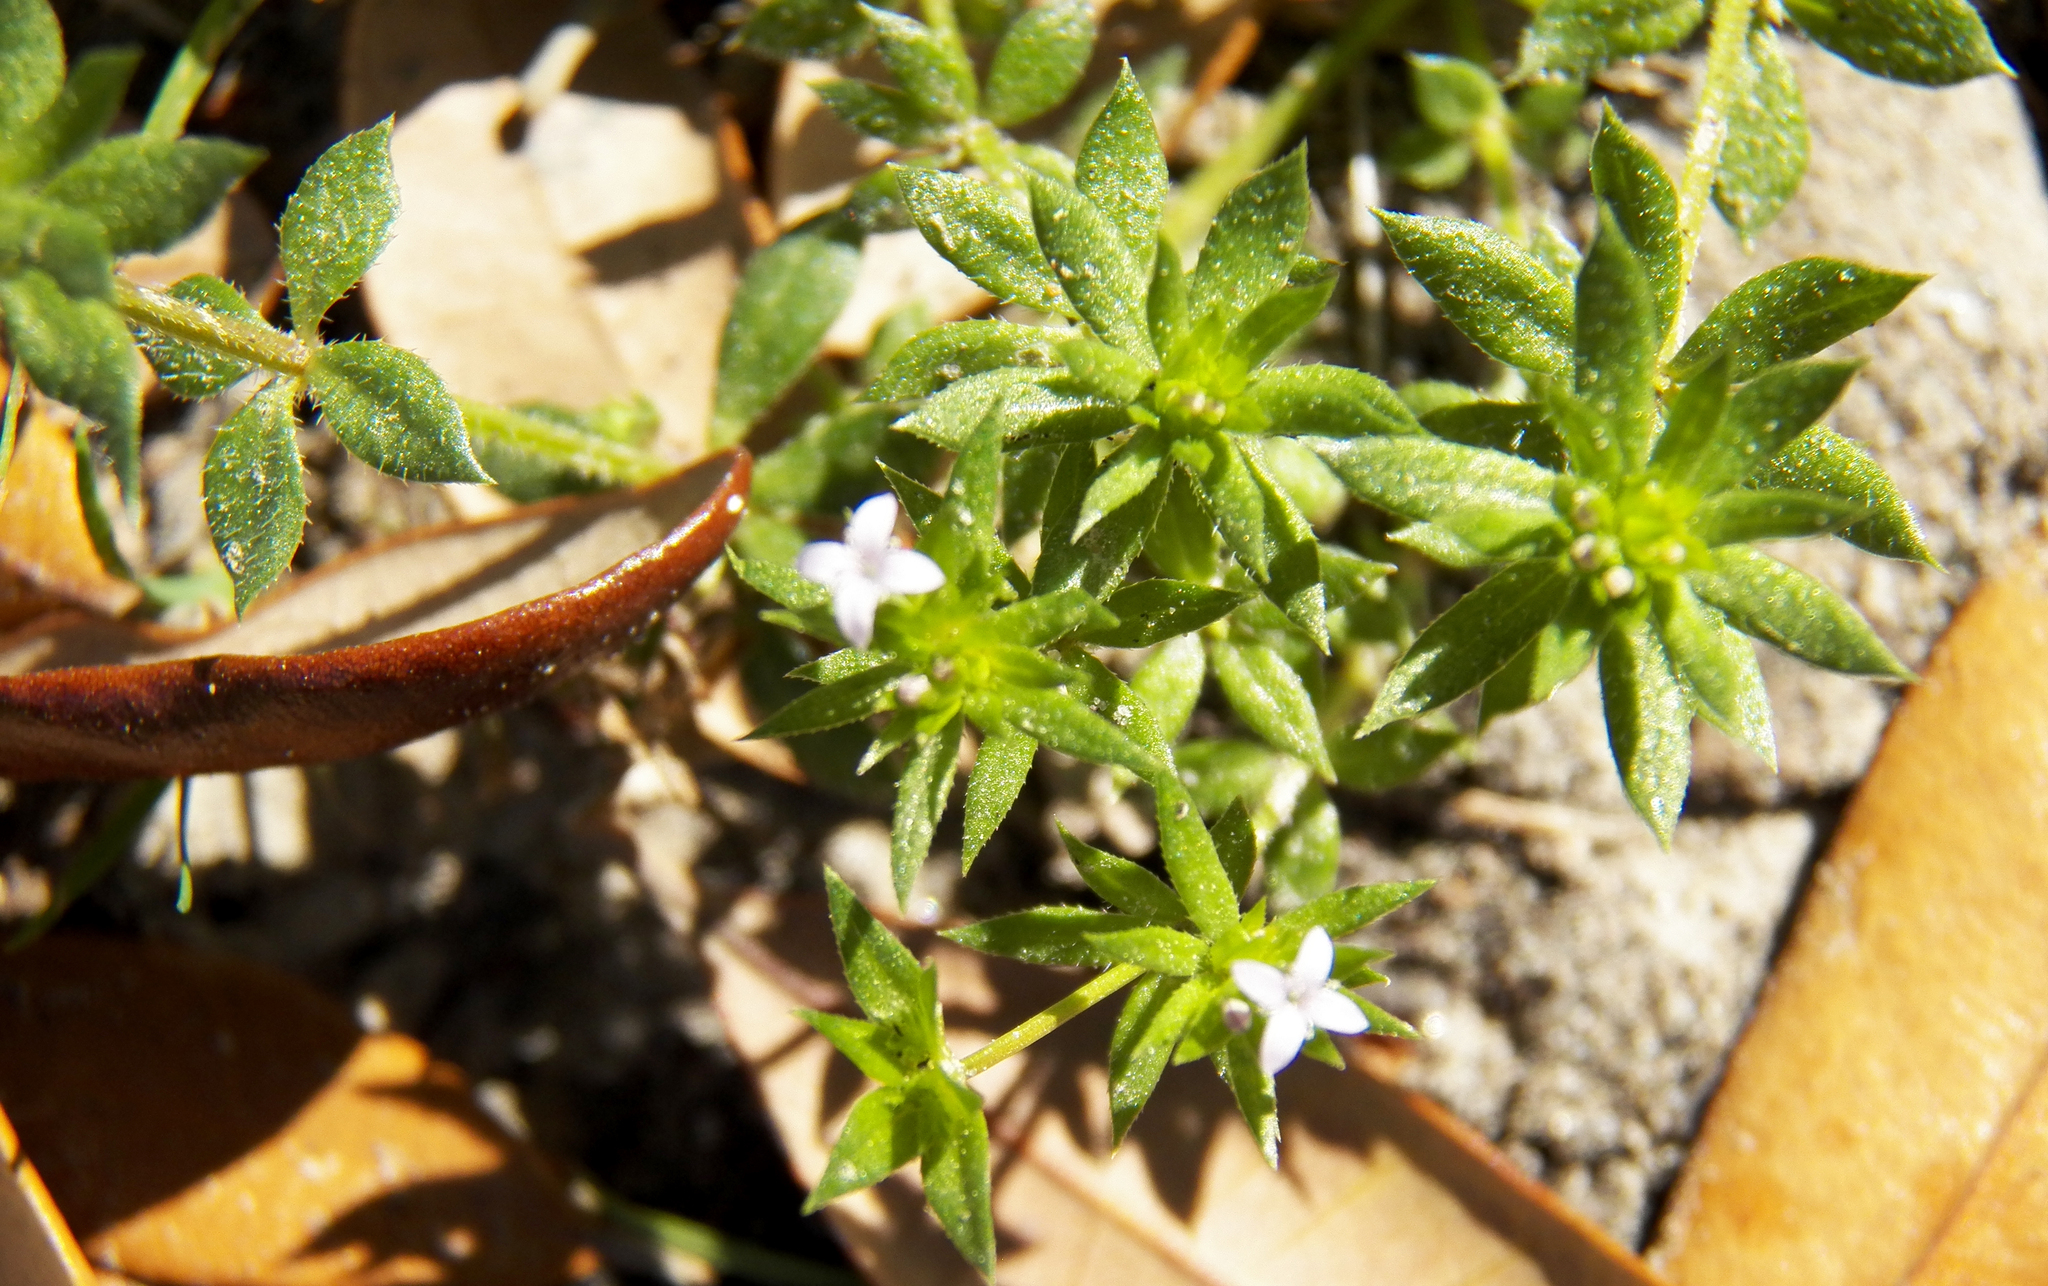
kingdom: Plantae
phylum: Tracheophyta
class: Magnoliopsida
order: Gentianales
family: Rubiaceae
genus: Sherardia
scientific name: Sherardia arvensis
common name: Field madder
